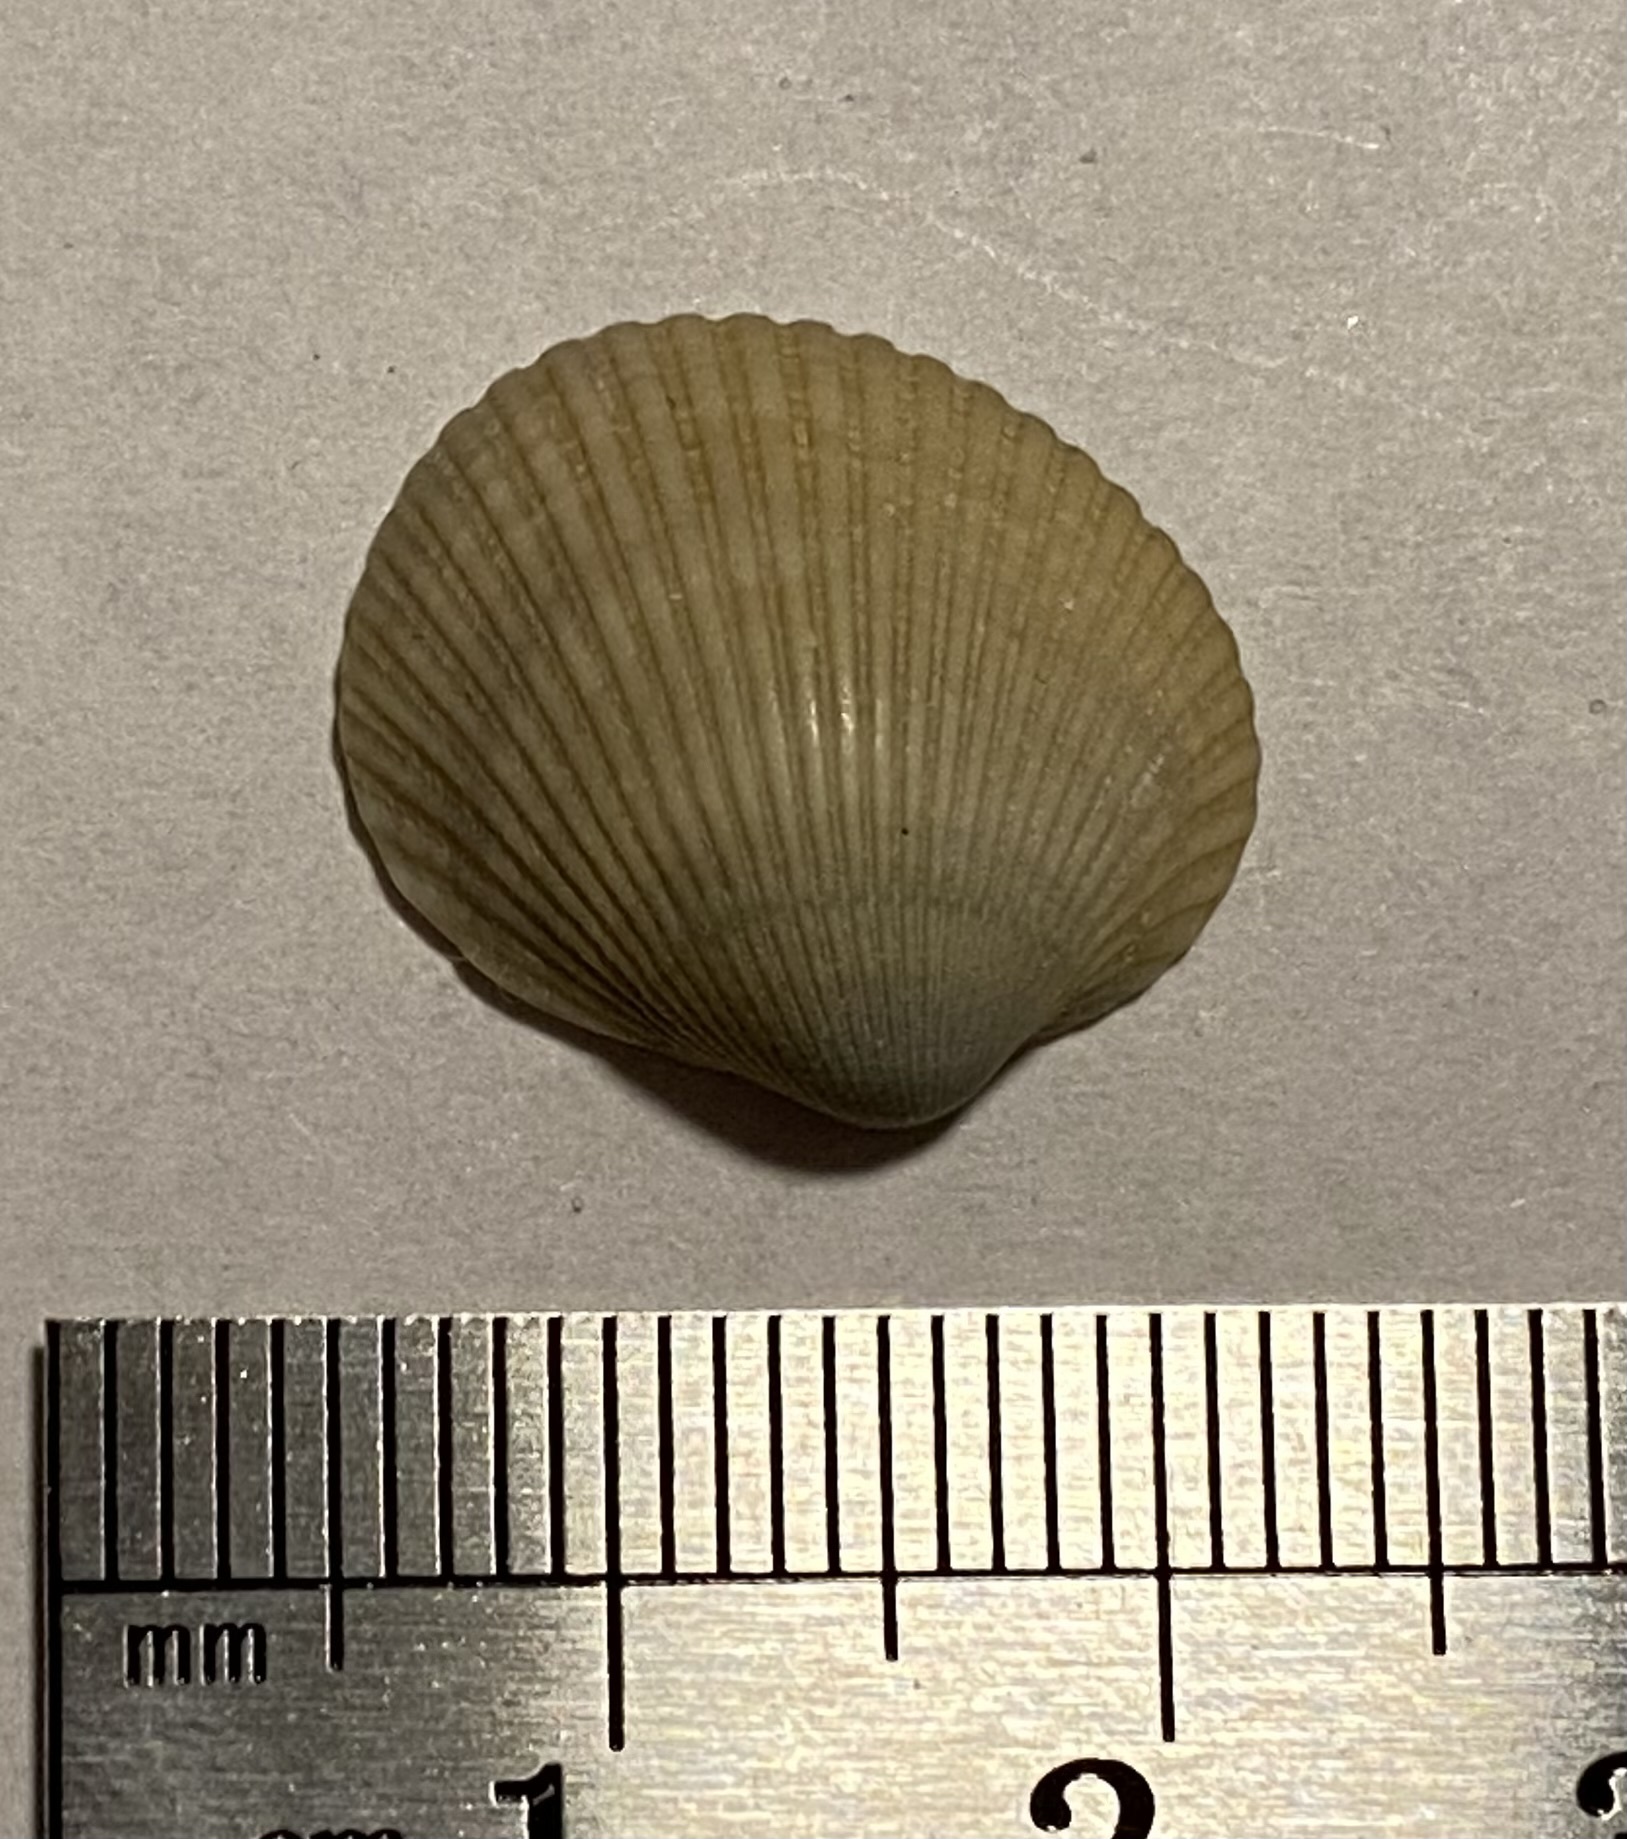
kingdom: Animalia
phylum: Mollusca
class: Bivalvia
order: Arcida
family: Arcidae
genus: Lunarca
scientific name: Lunarca ovalis
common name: Blood ark
